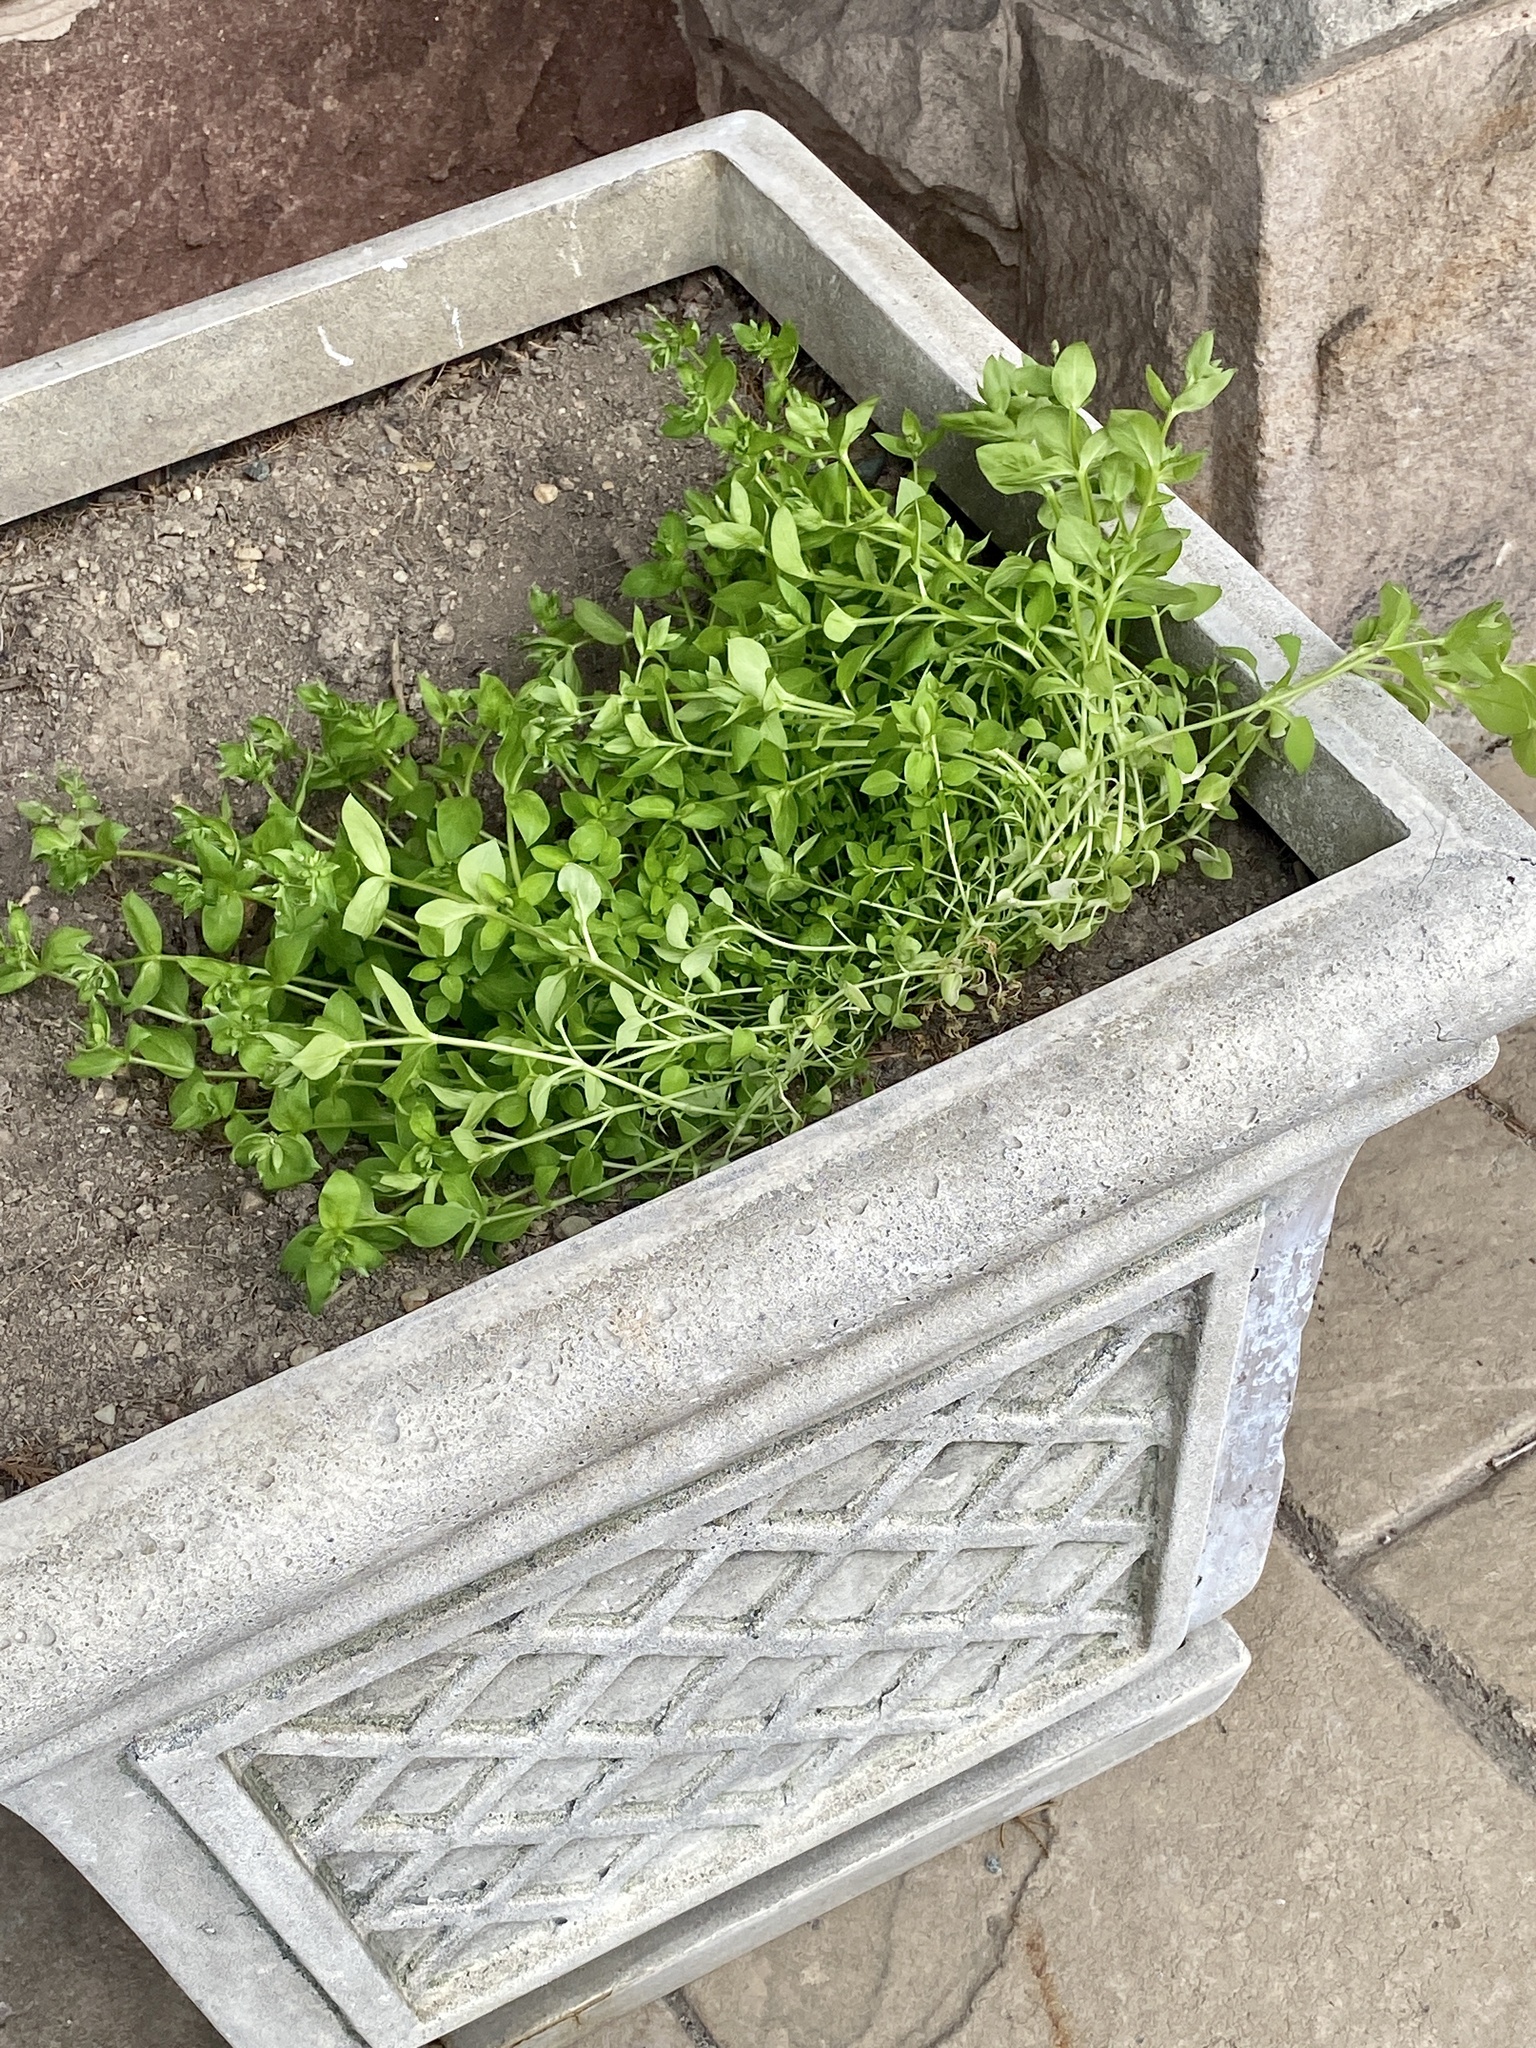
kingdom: Plantae
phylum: Tracheophyta
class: Magnoliopsida
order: Caryophyllales
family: Caryophyllaceae
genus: Stellaria
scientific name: Stellaria media
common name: Common chickweed
